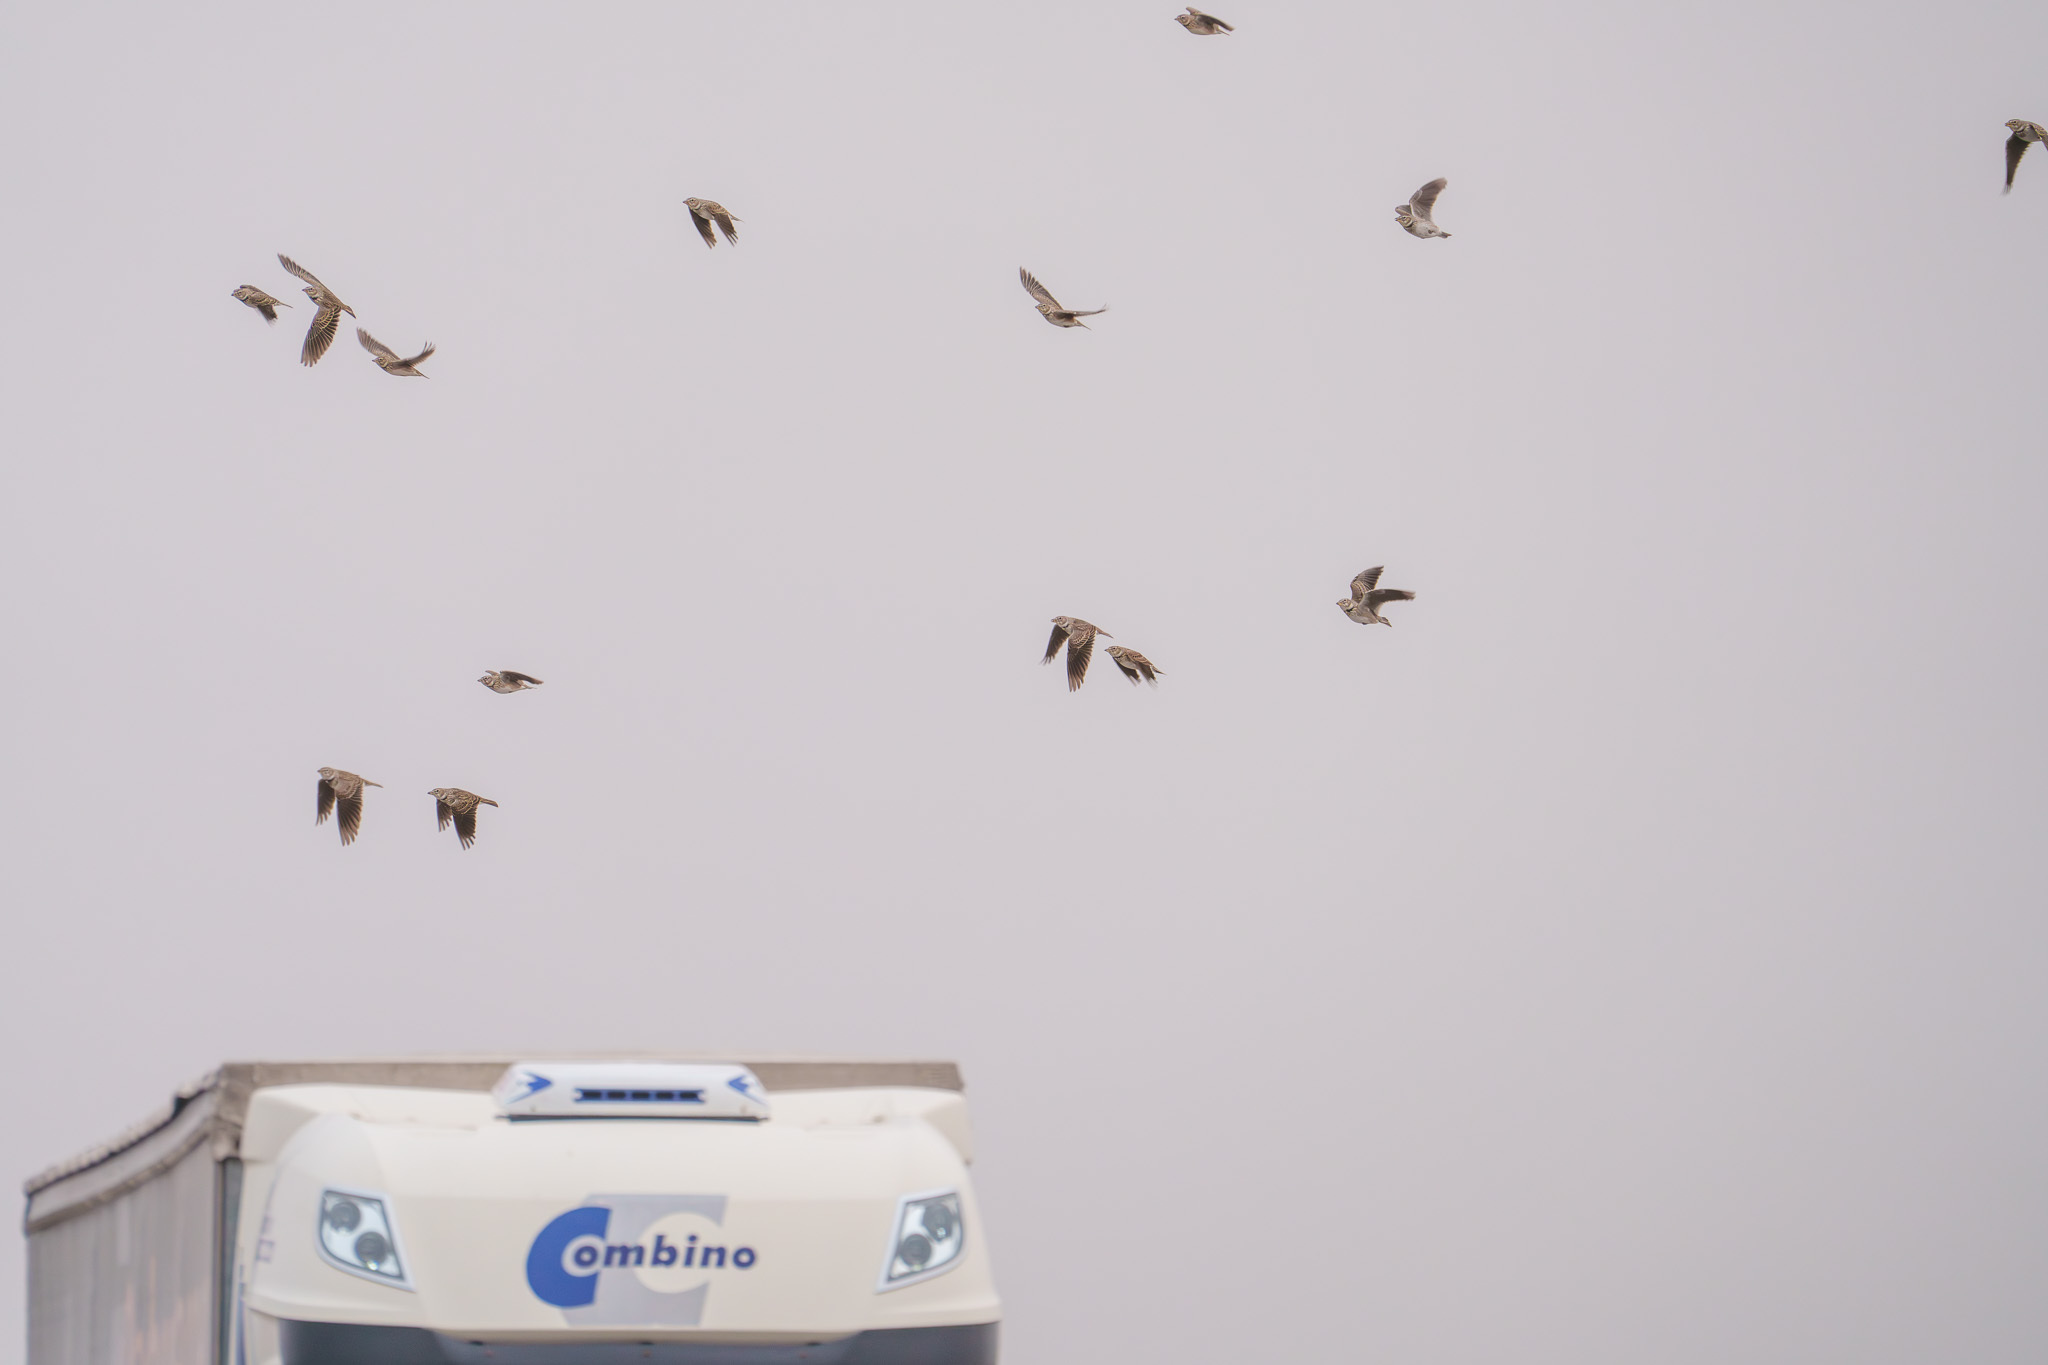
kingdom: Animalia
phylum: Chordata
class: Aves
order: Passeriformes
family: Alaudidae
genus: Melanocorypha
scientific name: Melanocorypha calandra
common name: Calandra lark
